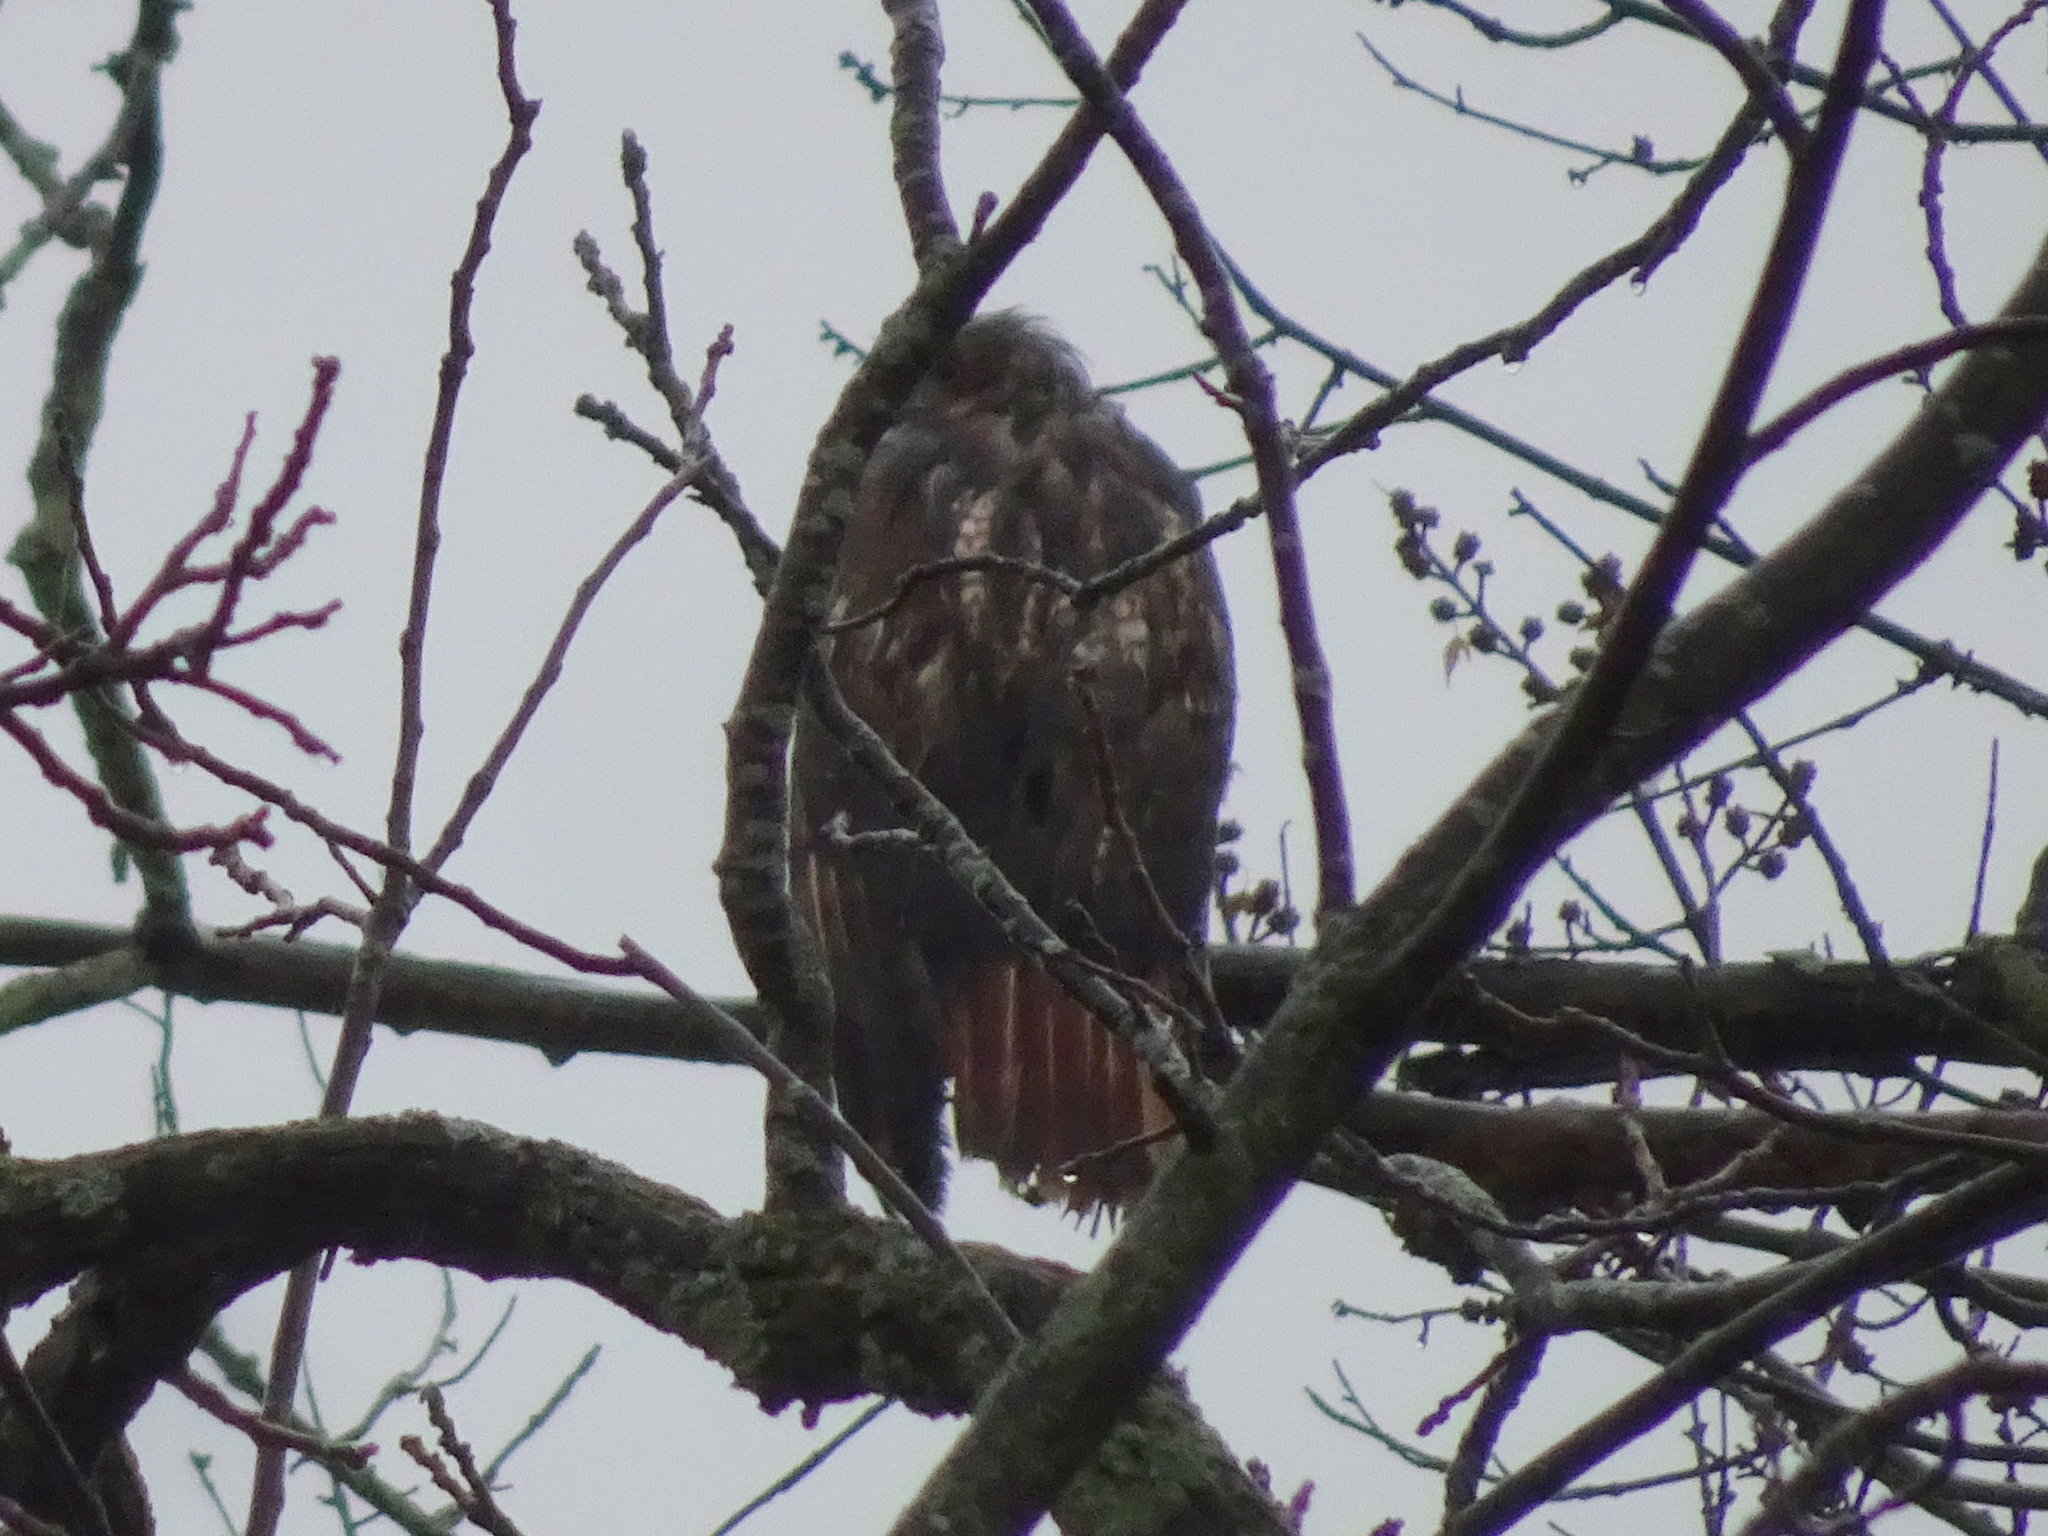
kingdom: Animalia
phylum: Chordata
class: Aves
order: Accipitriformes
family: Accipitridae
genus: Buteo
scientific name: Buteo jamaicensis
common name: Red-tailed hawk
